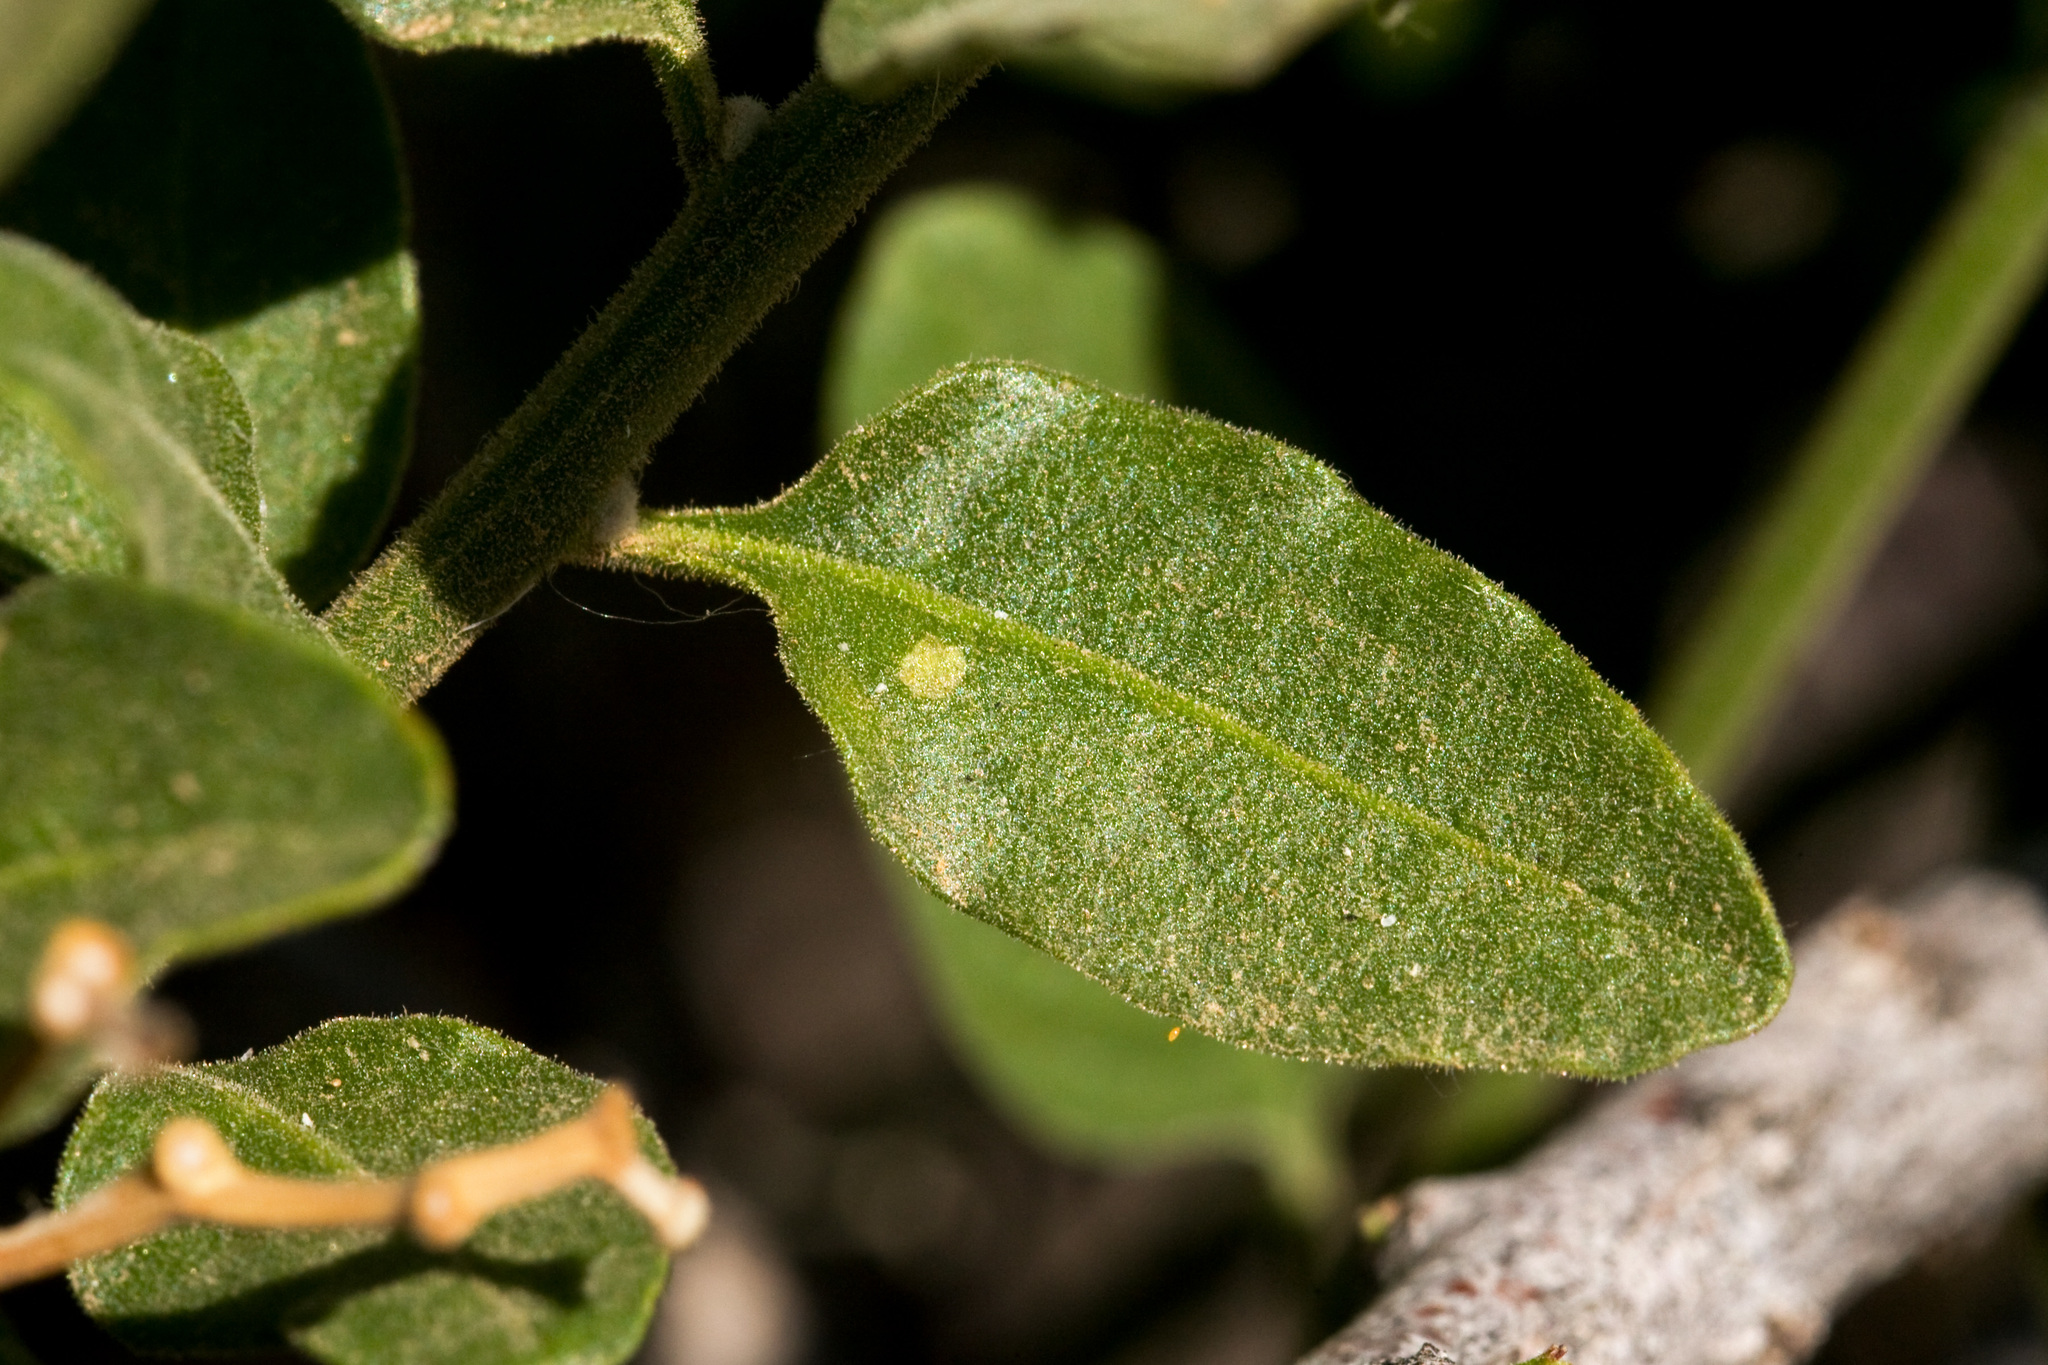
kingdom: Plantae
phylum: Tracheophyta
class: Magnoliopsida
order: Solanales
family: Solanaceae
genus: Solanum
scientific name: Solanum umbelliferum
